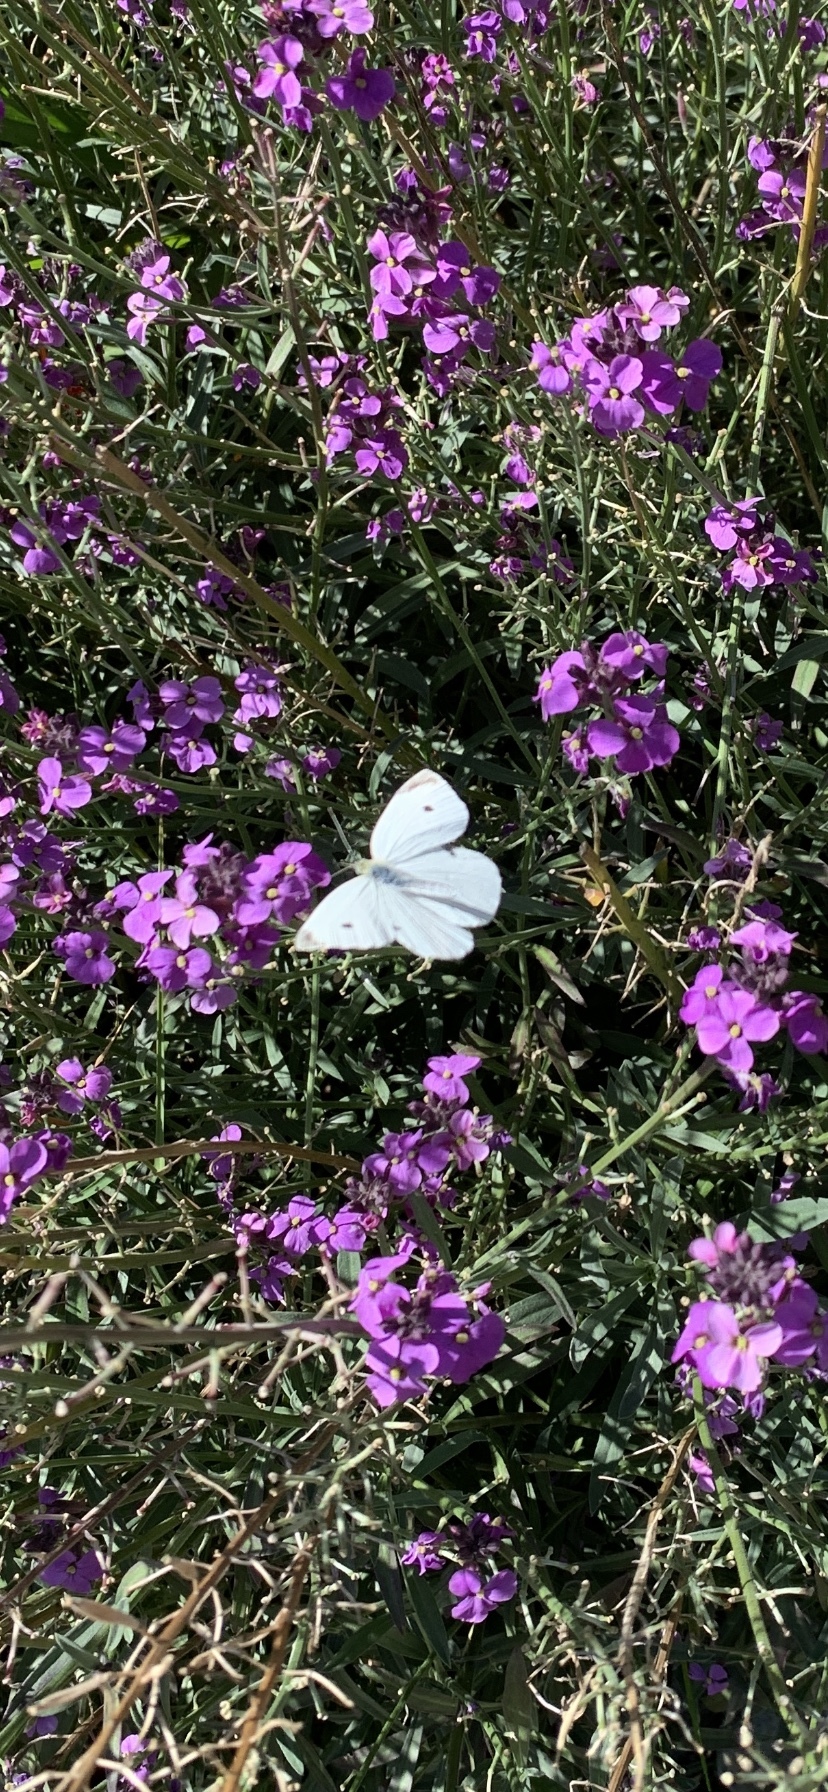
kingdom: Animalia
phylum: Arthropoda
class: Insecta
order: Lepidoptera
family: Pieridae
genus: Pieris
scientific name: Pieris rapae
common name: Small white
